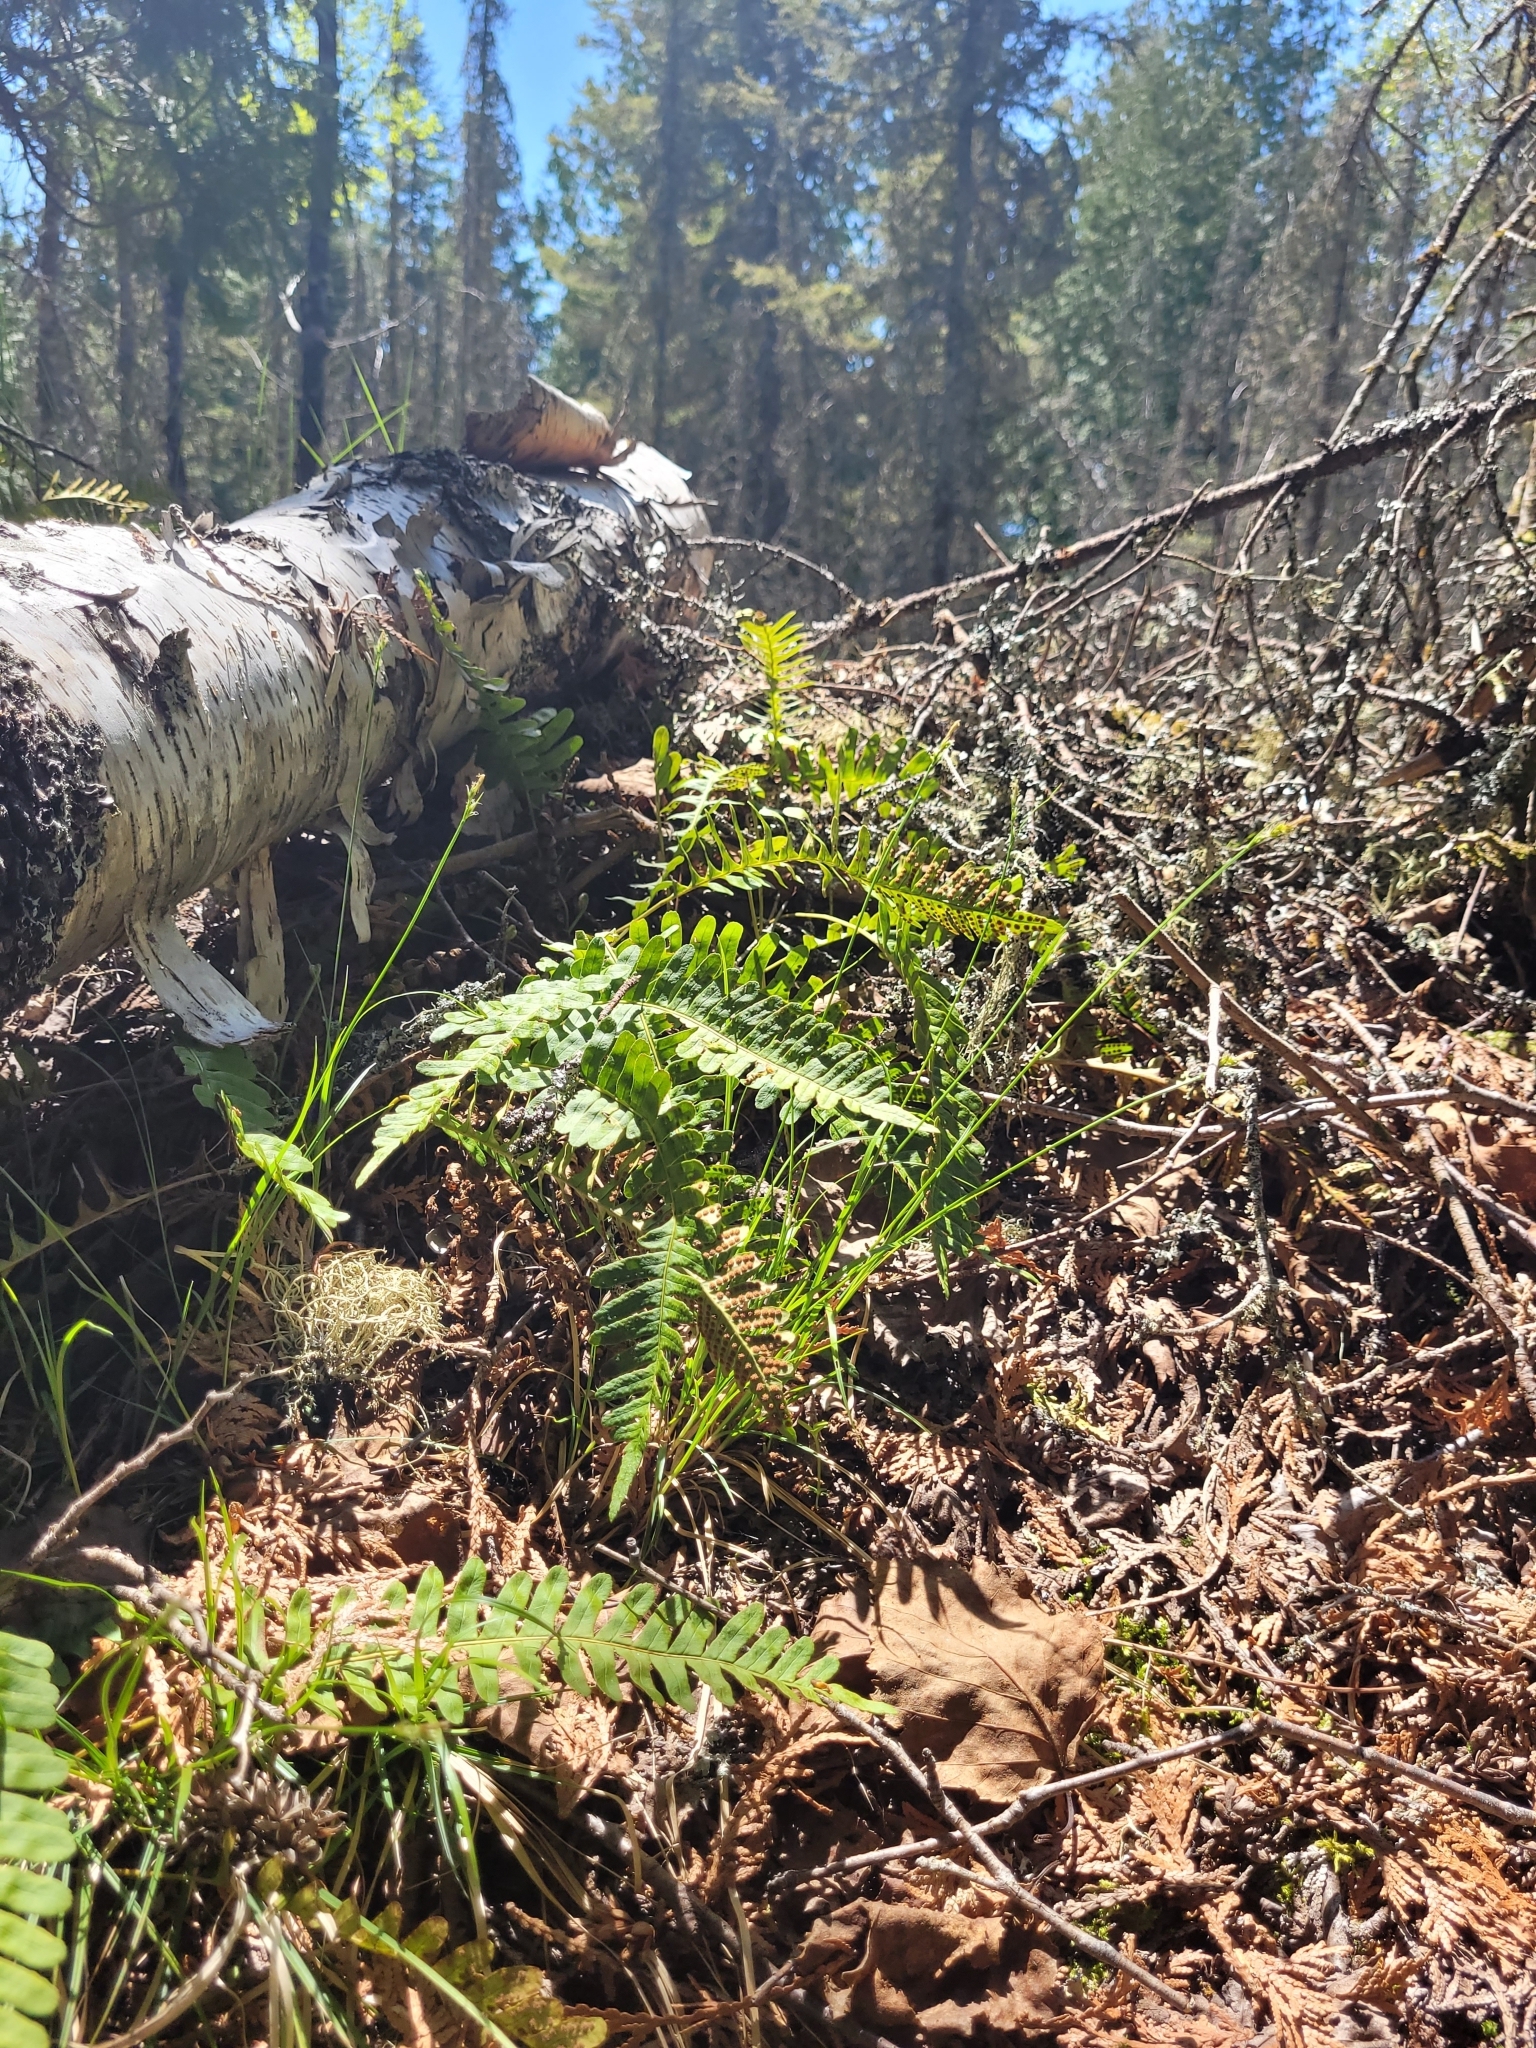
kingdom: Plantae
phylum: Tracheophyta
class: Polypodiopsida
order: Polypodiales
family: Polypodiaceae
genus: Polypodium
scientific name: Polypodium virginianum
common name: American wall fern
